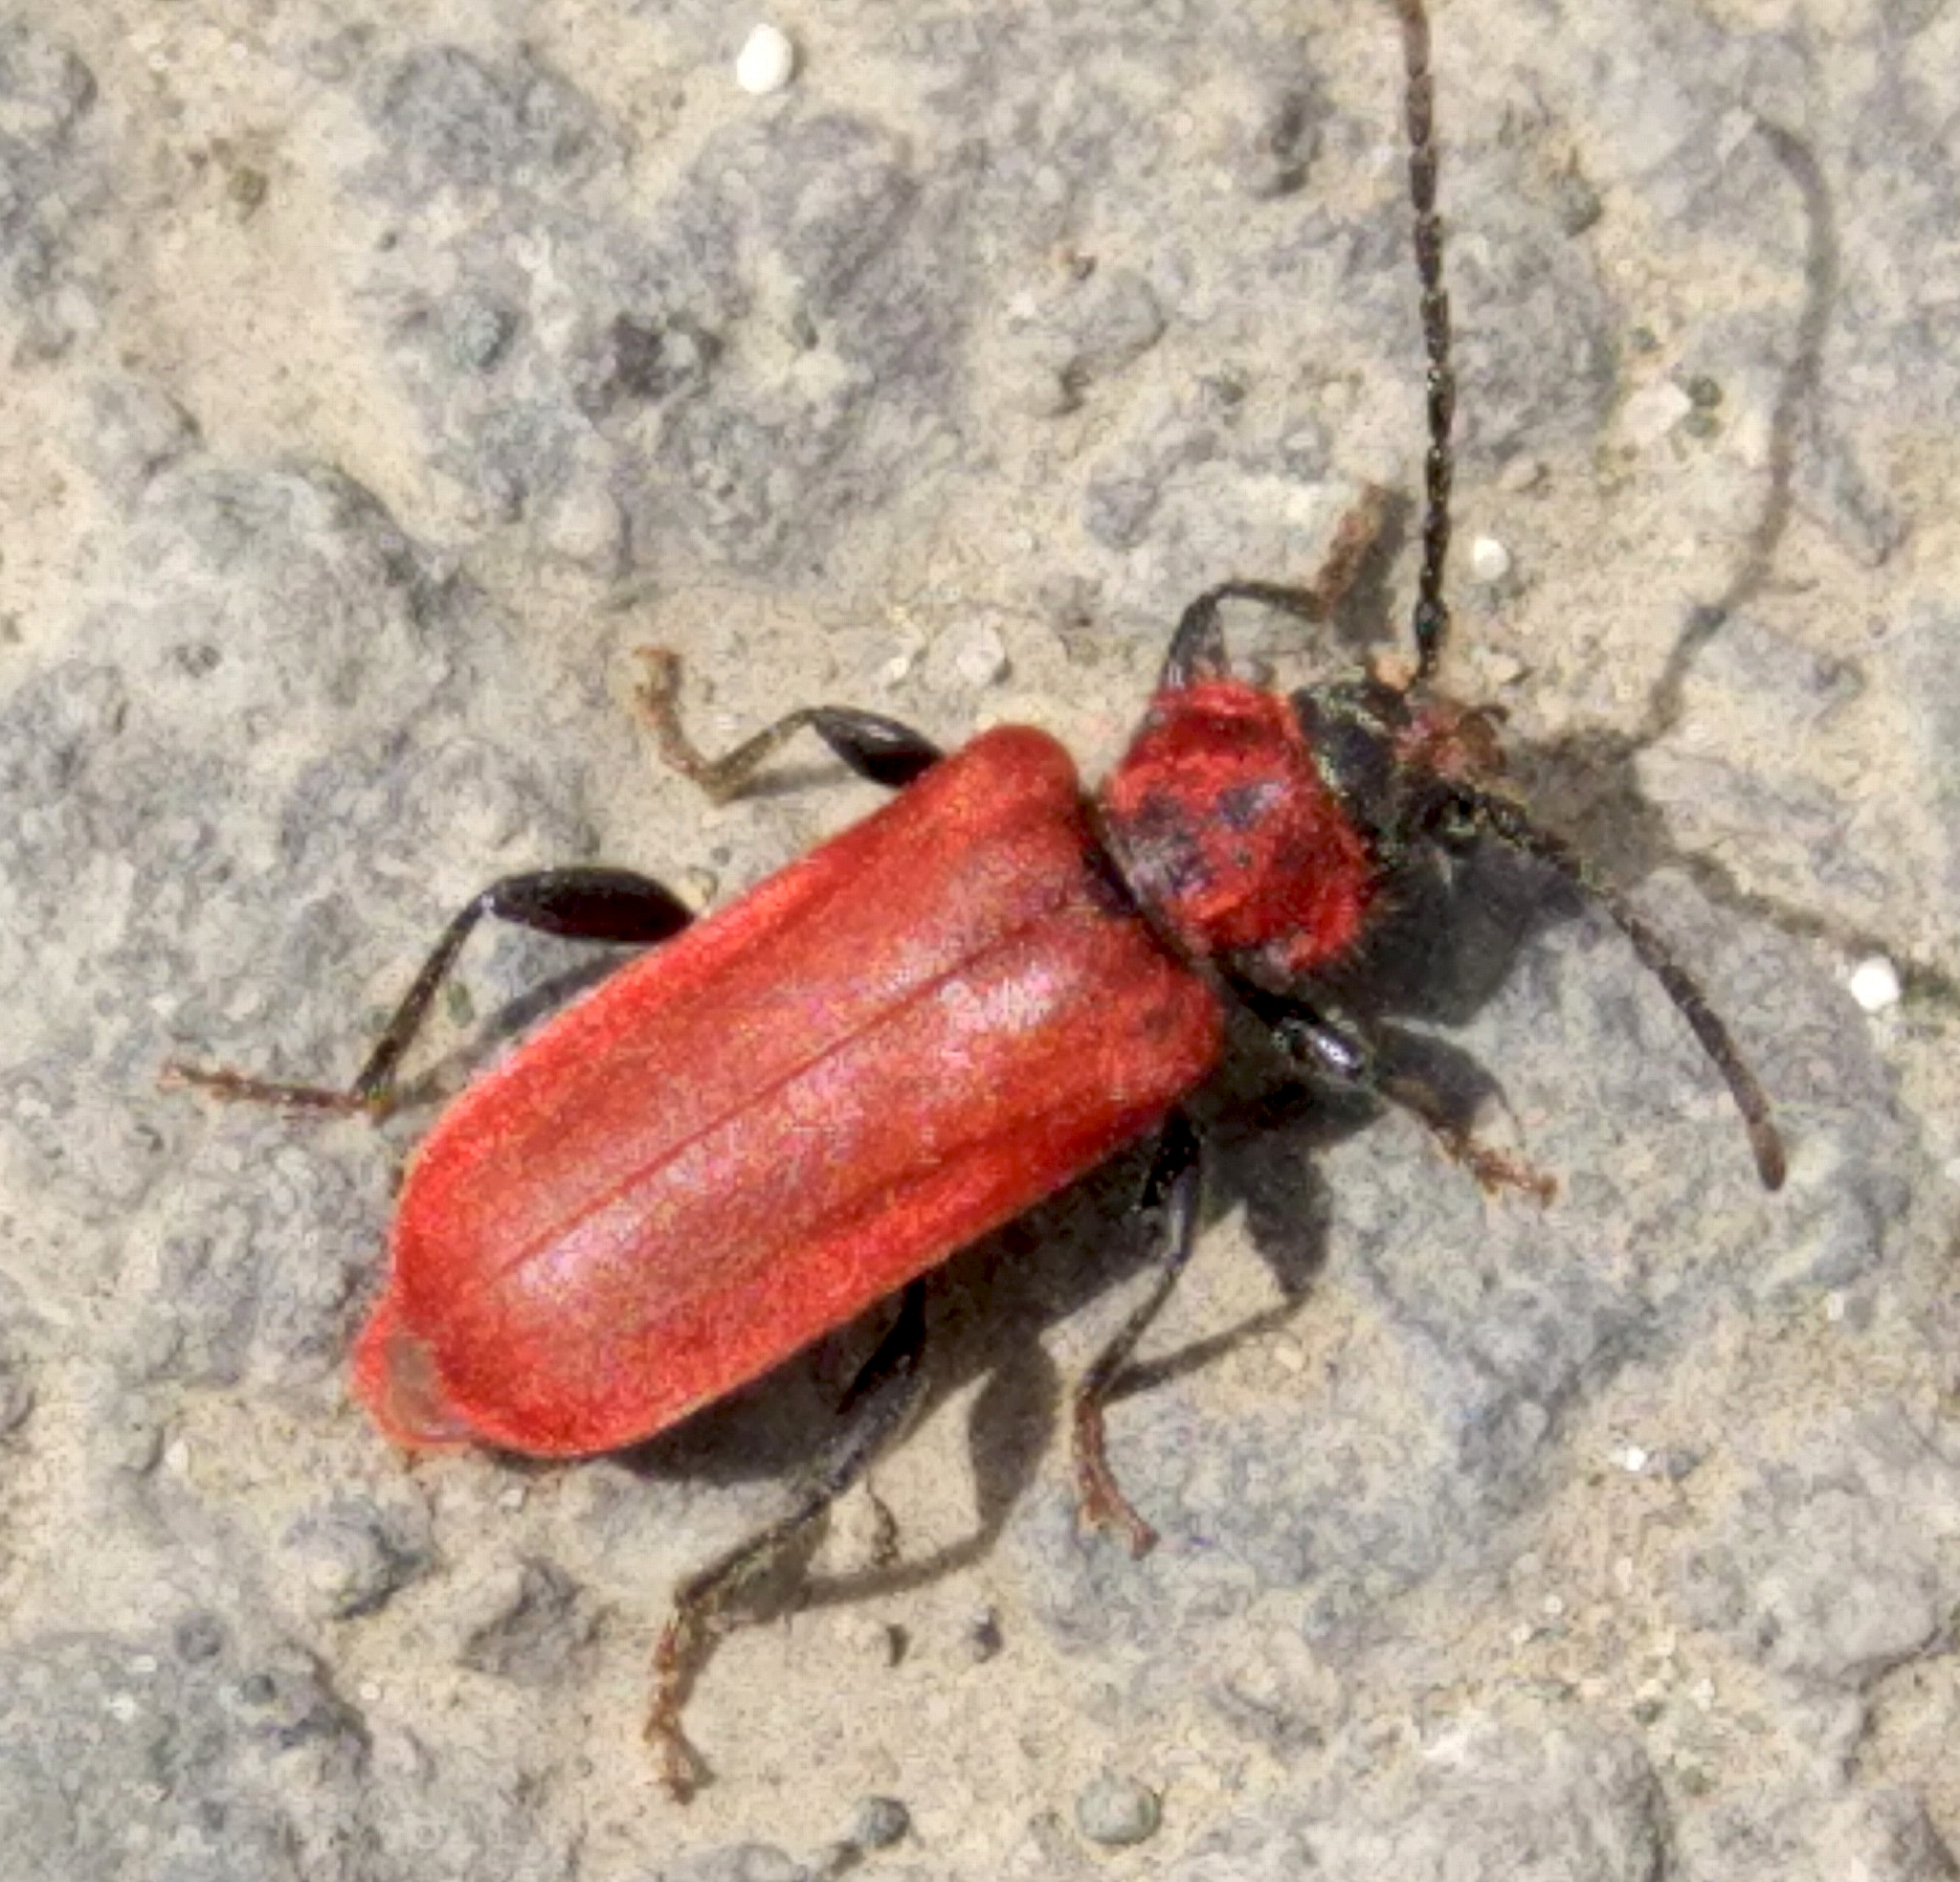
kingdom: Animalia
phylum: Arthropoda
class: Insecta
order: Coleoptera
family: Cerambycidae
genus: Pyrrhidium
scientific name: Pyrrhidium sanguineum
